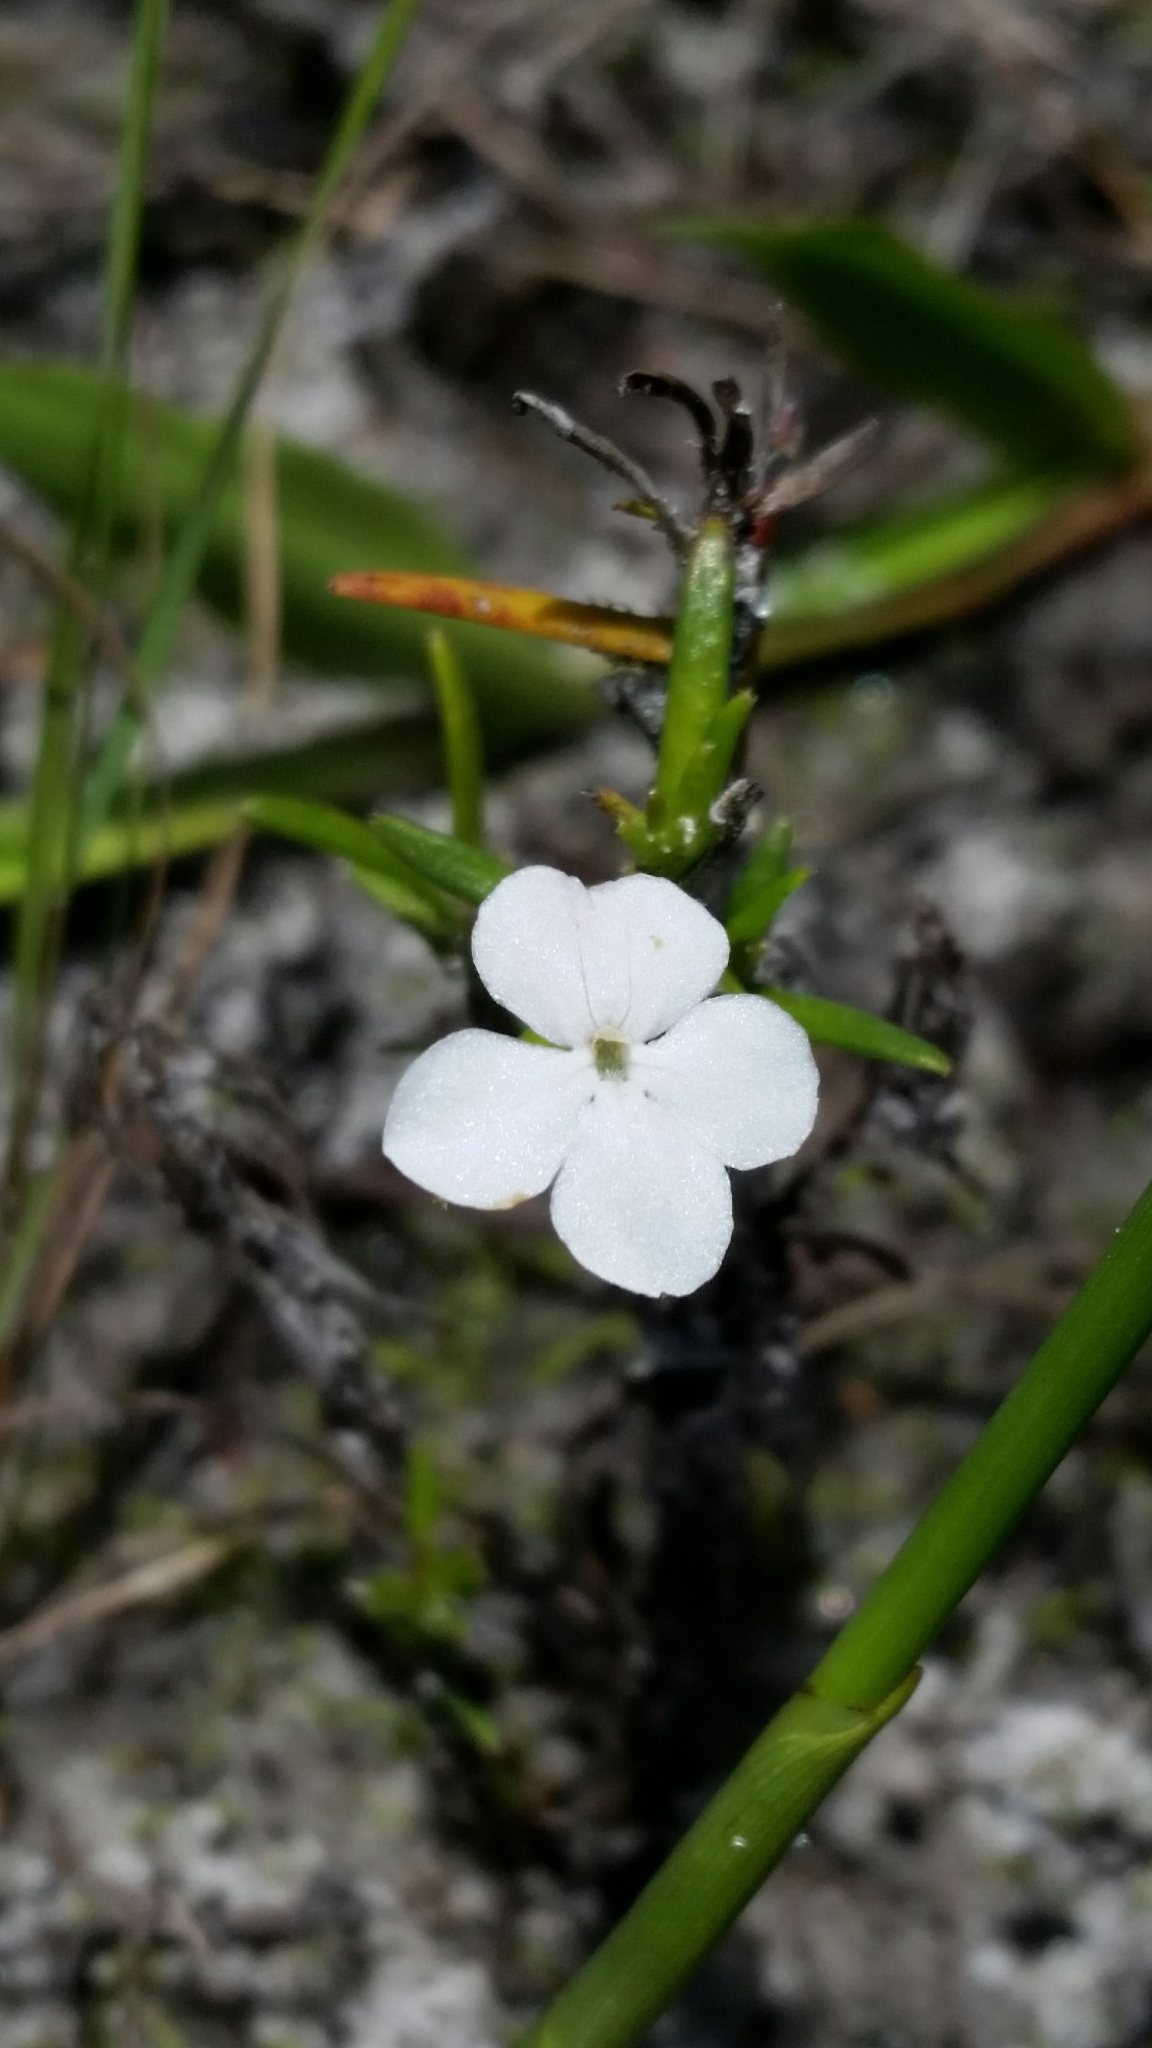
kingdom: Plantae
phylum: Tracheophyta
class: Magnoliopsida
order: Lamiales
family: Plantaginaceae
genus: Gratiola
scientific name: Gratiola hispida
